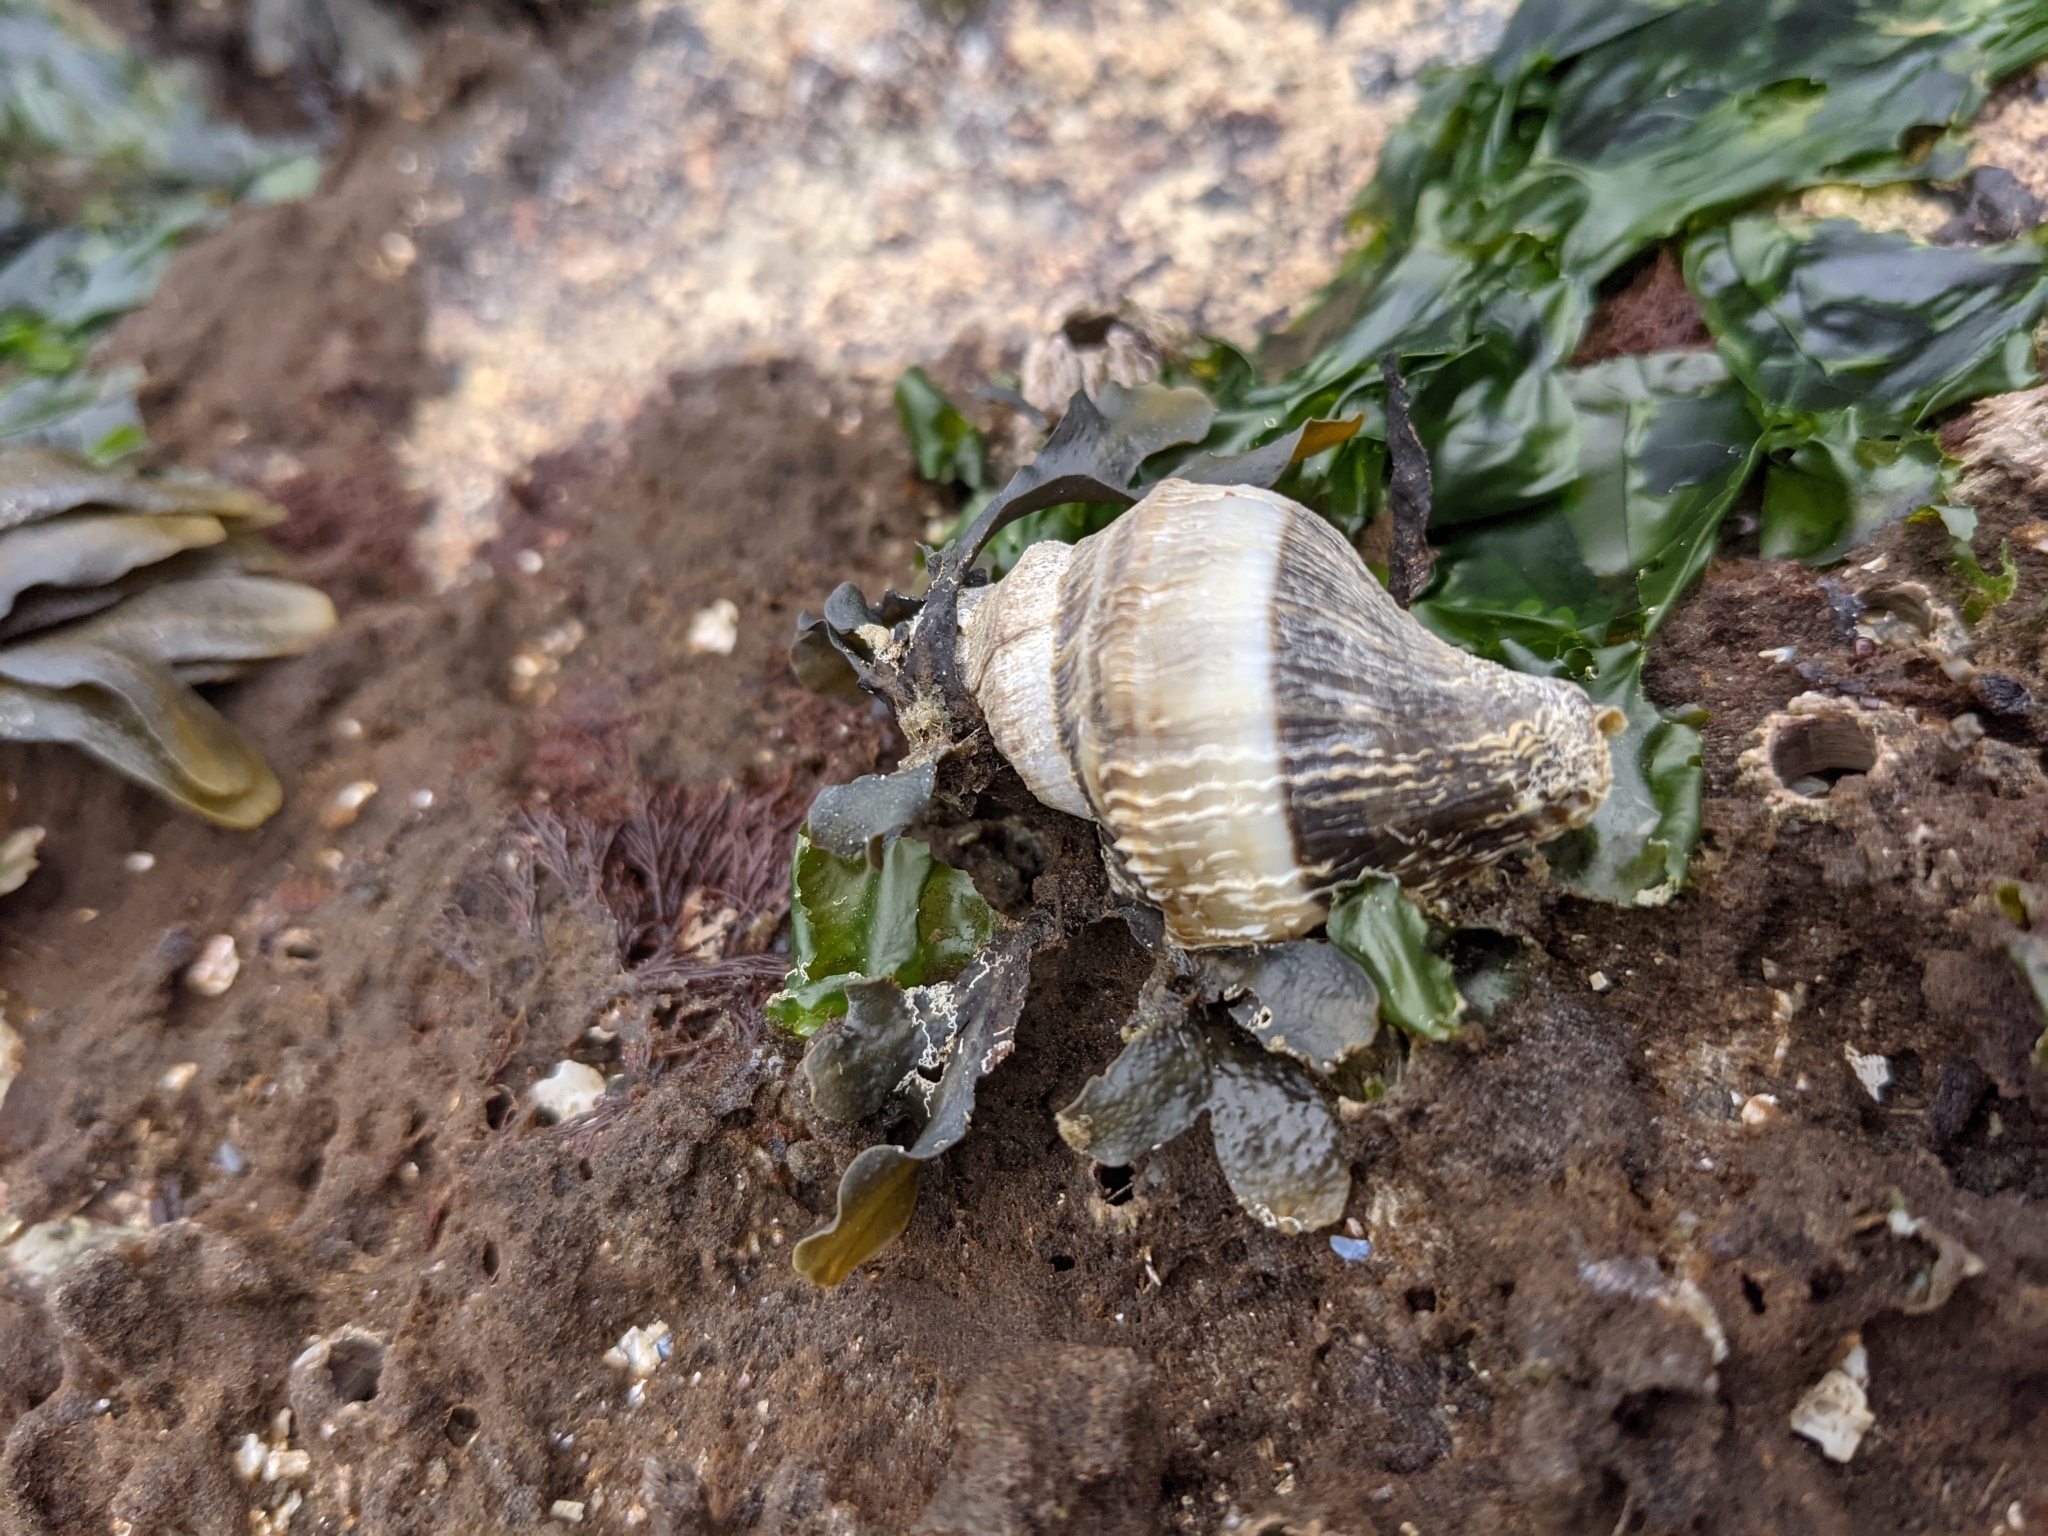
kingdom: Animalia
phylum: Mollusca
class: Gastropoda
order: Neogastropoda
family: Muricidae
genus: Nucella
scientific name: Nucella lamellosa
